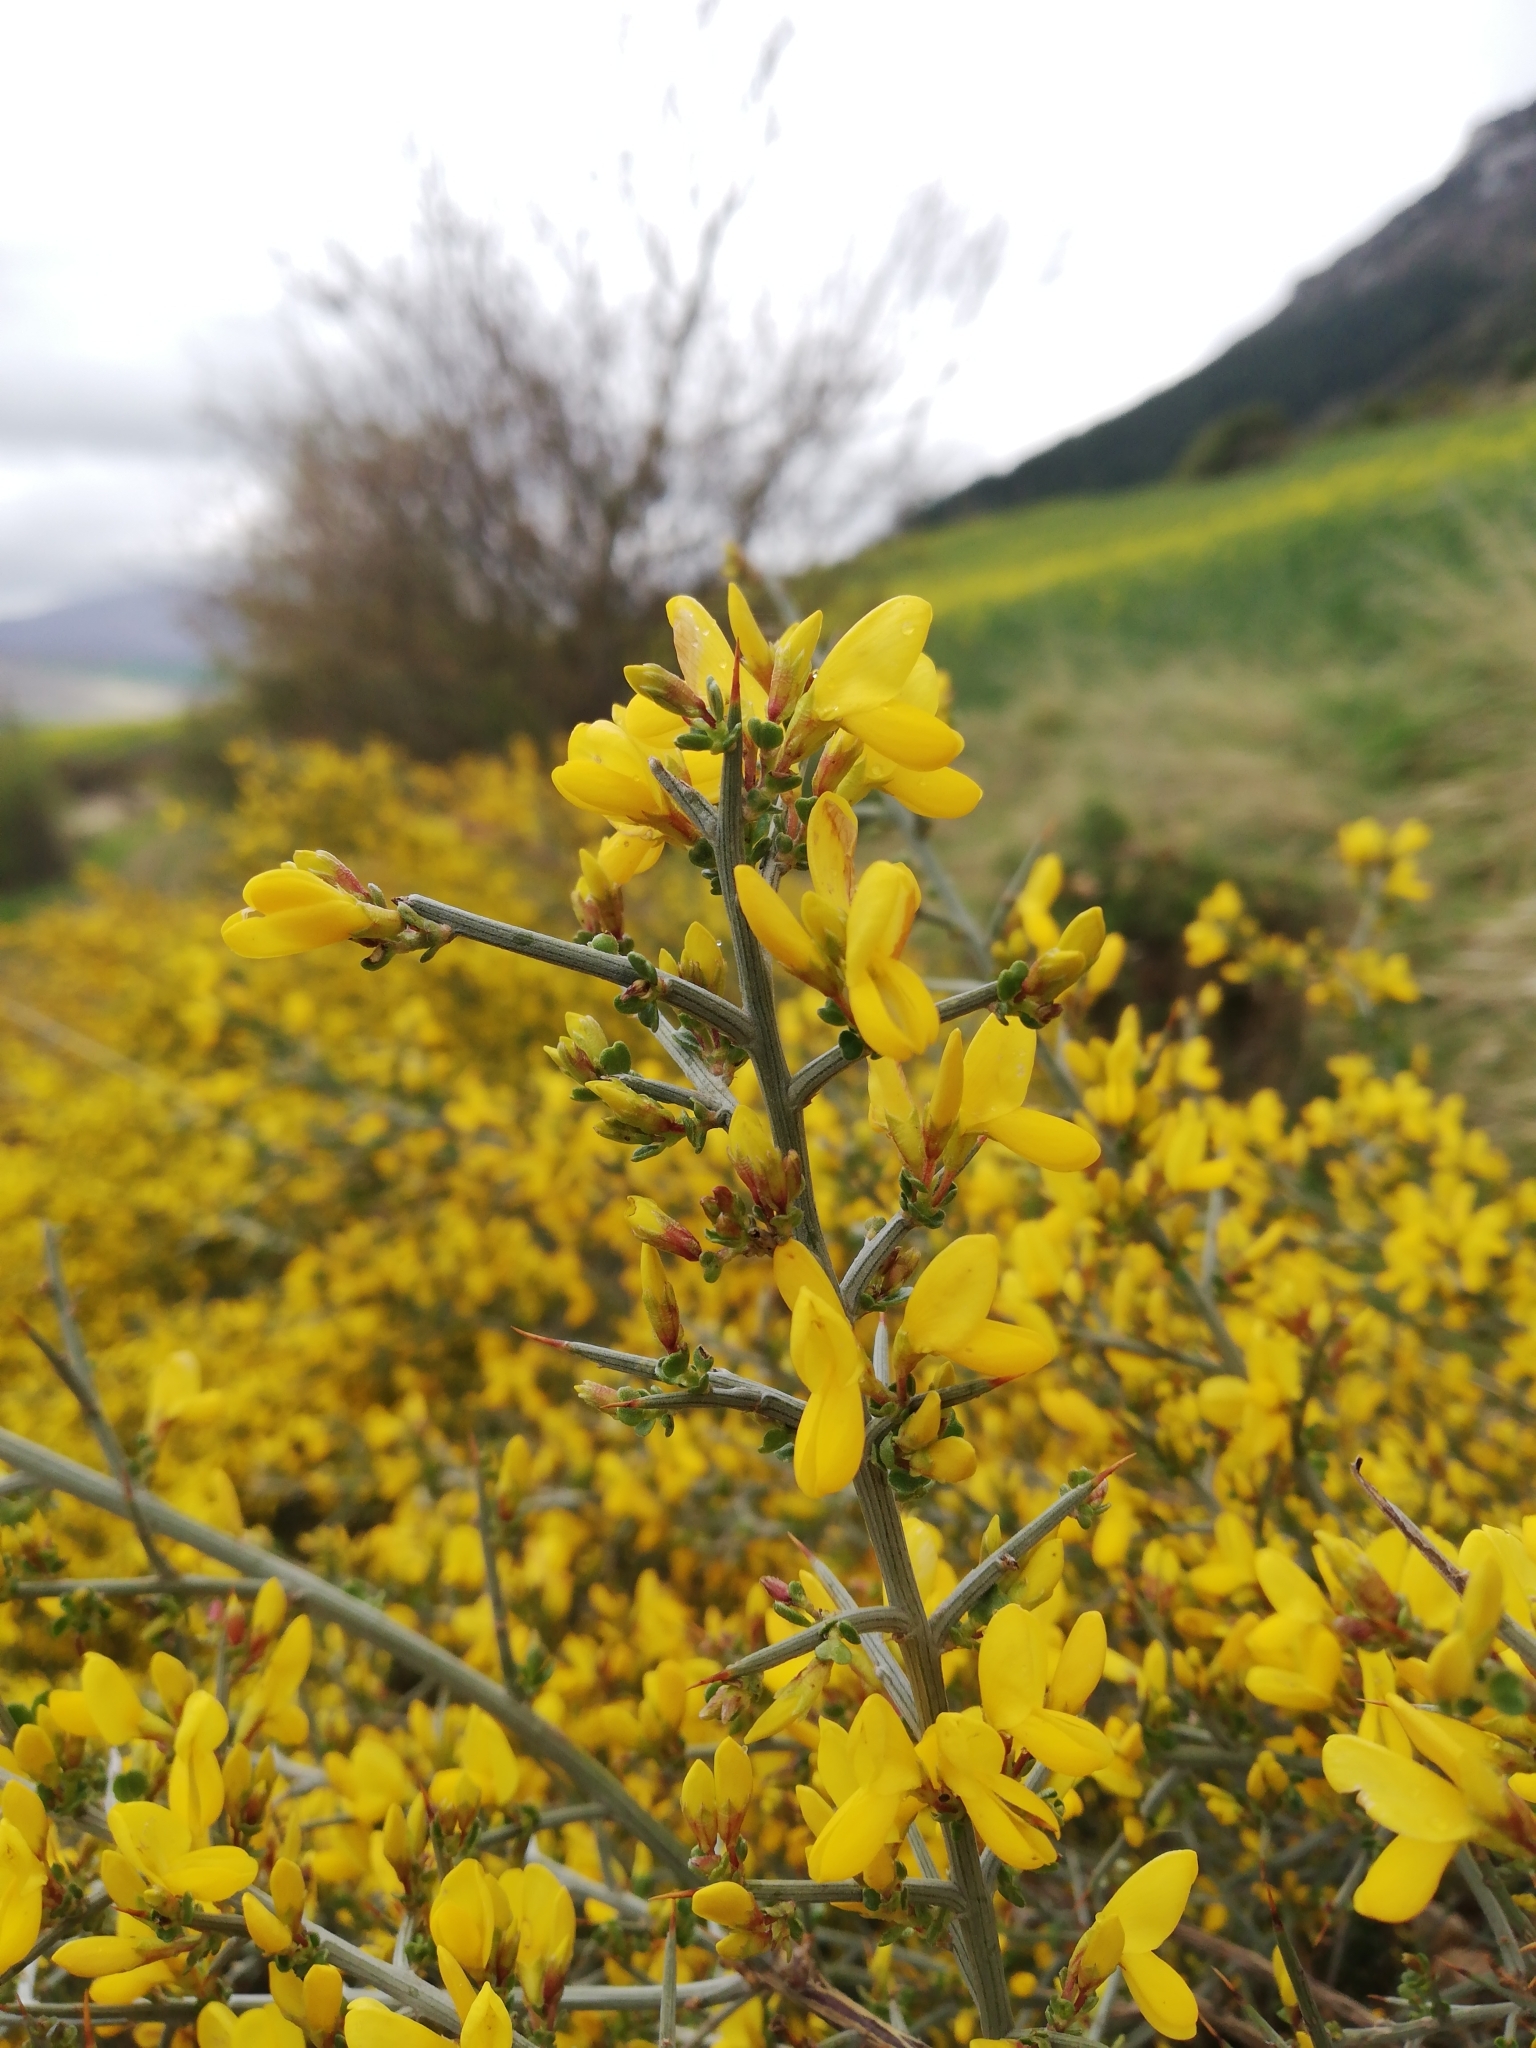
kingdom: Plantae
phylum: Tracheophyta
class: Magnoliopsida
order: Fabales
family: Fabaceae
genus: Genista
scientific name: Genista scorpius
